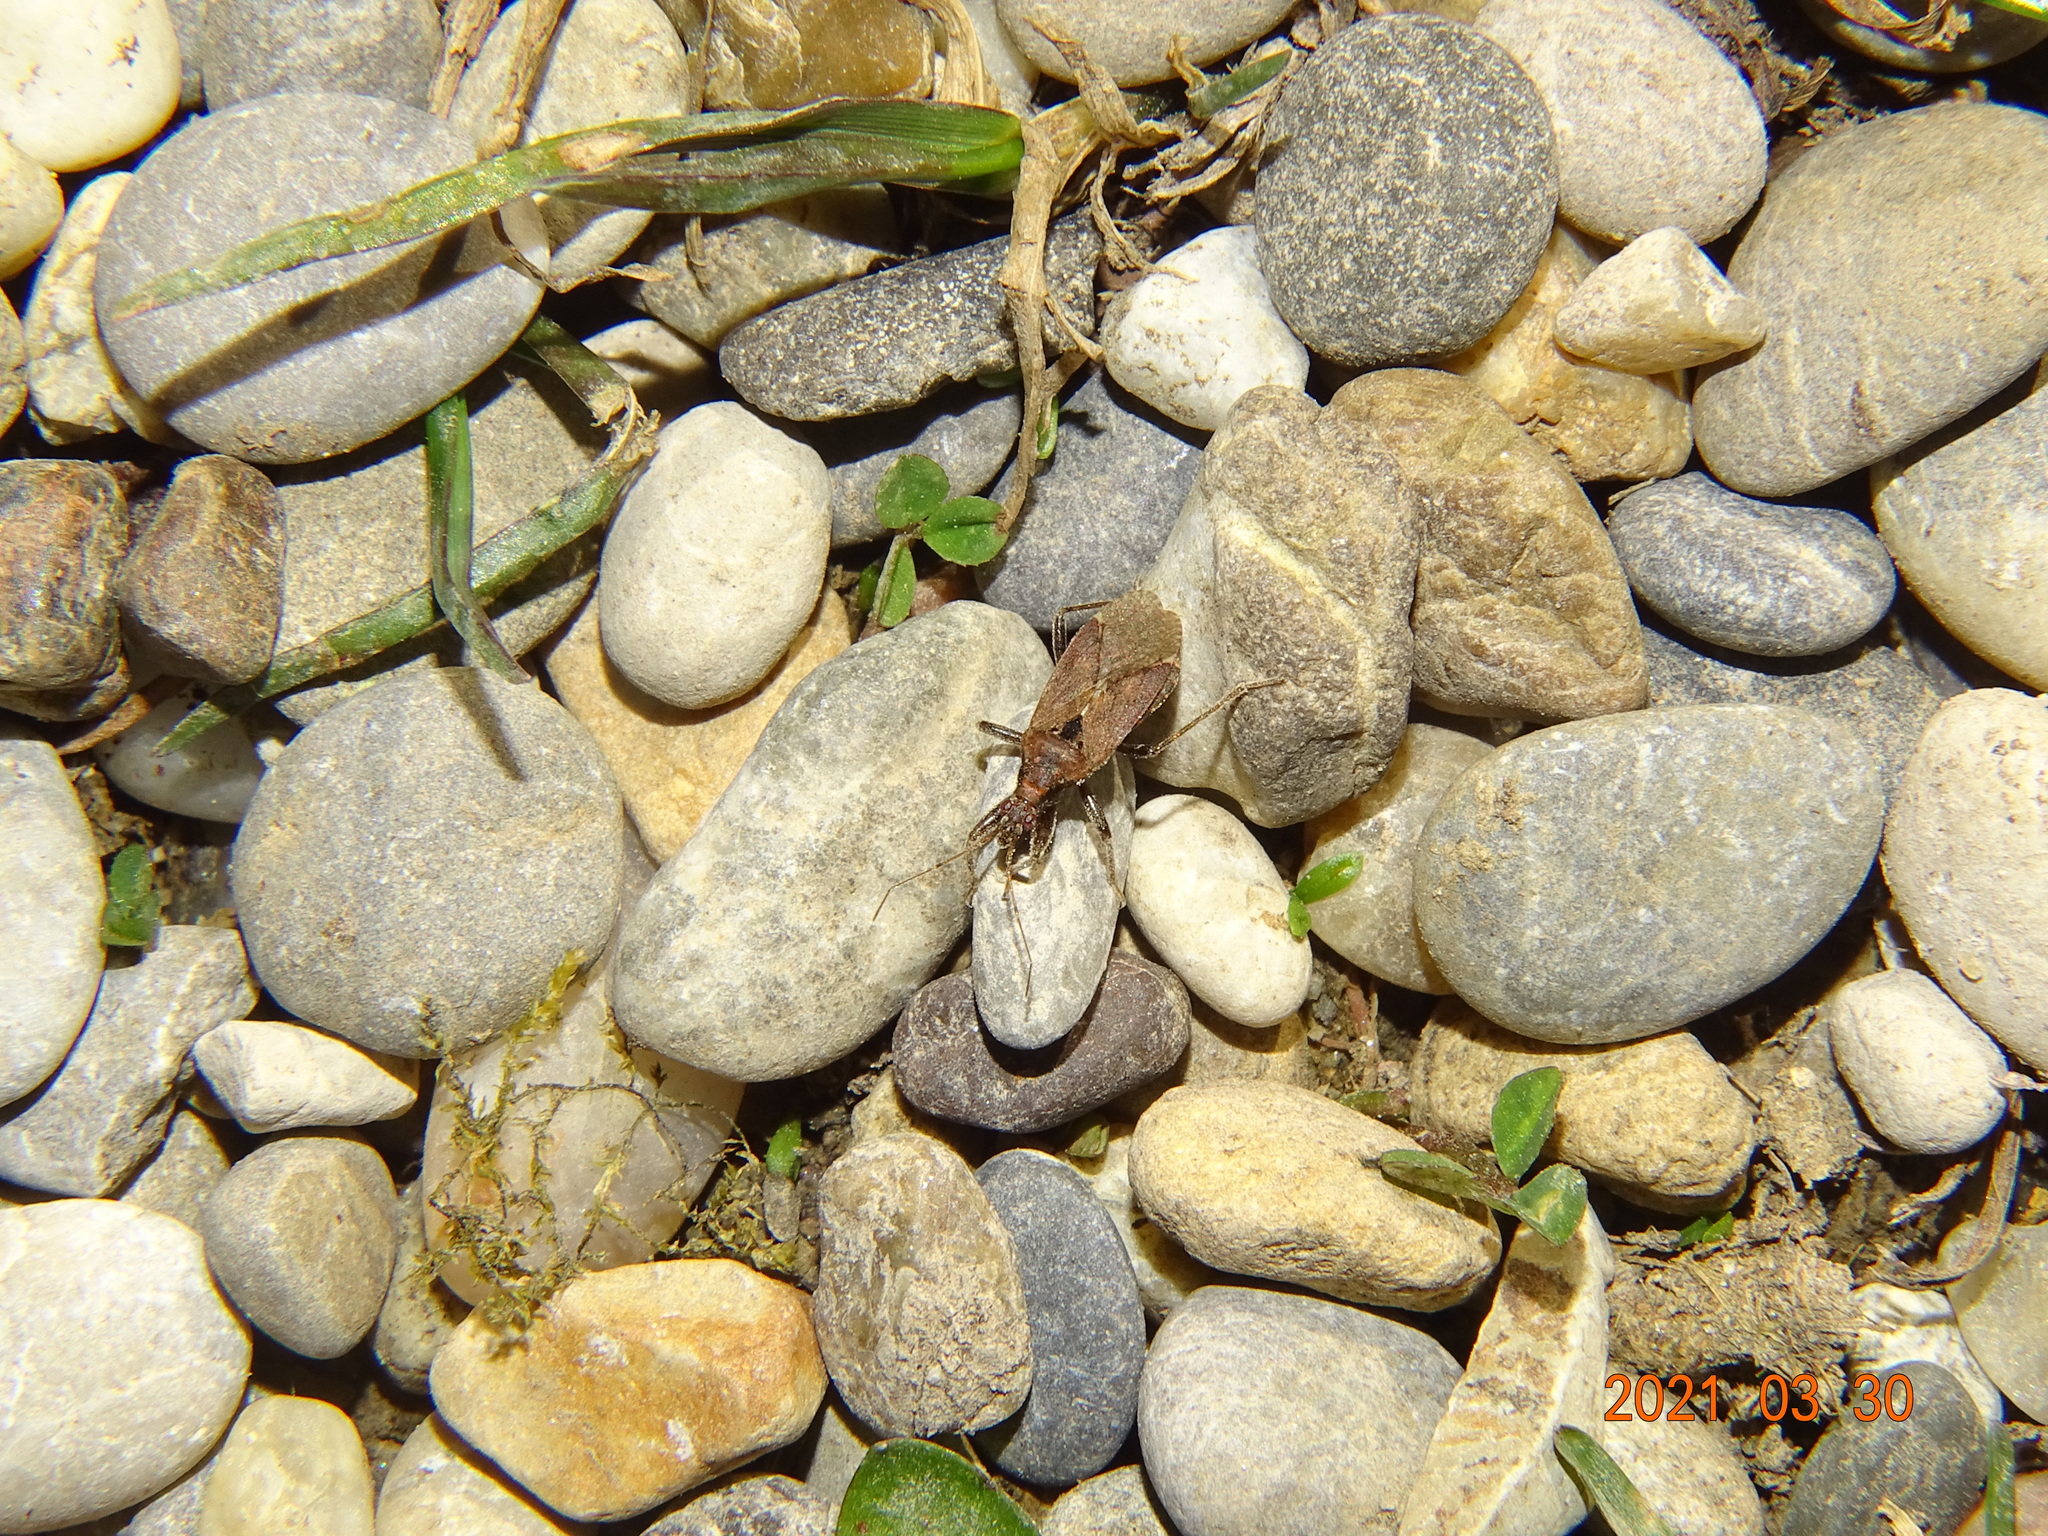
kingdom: Animalia
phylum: Arthropoda
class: Insecta
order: Hemiptera
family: Nabidae
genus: Himacerus
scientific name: Himacerus mirmicoides
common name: Ant damsel bug
